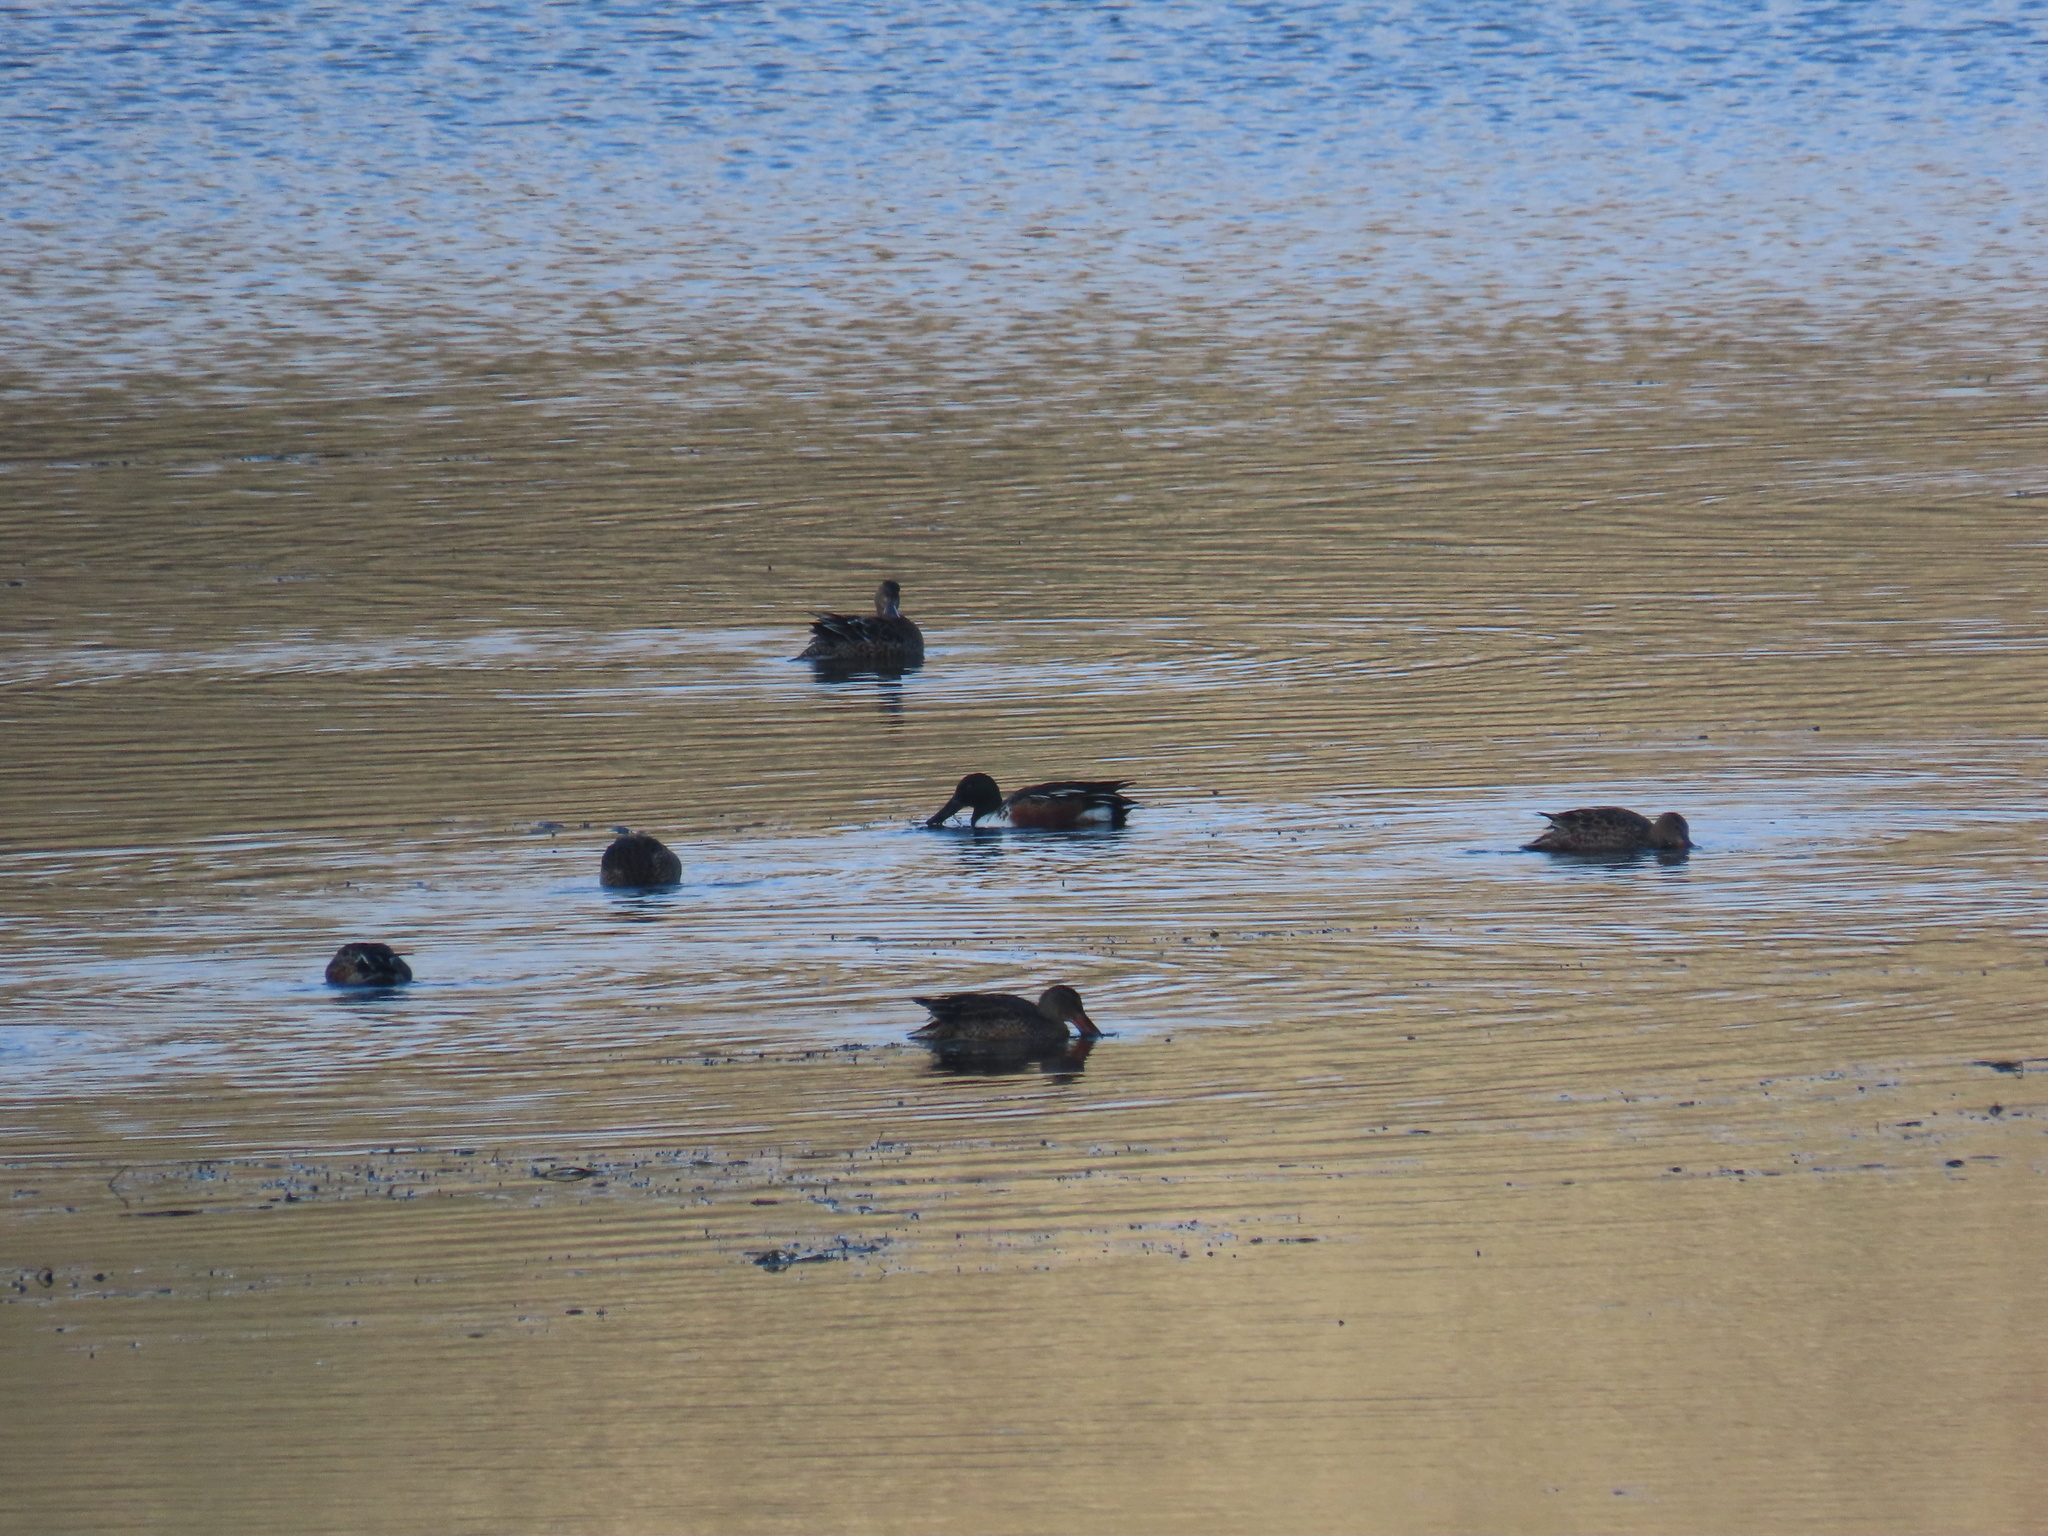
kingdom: Animalia
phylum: Chordata
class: Aves
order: Anseriformes
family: Anatidae
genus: Spatula
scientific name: Spatula clypeata
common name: Northern shoveler
